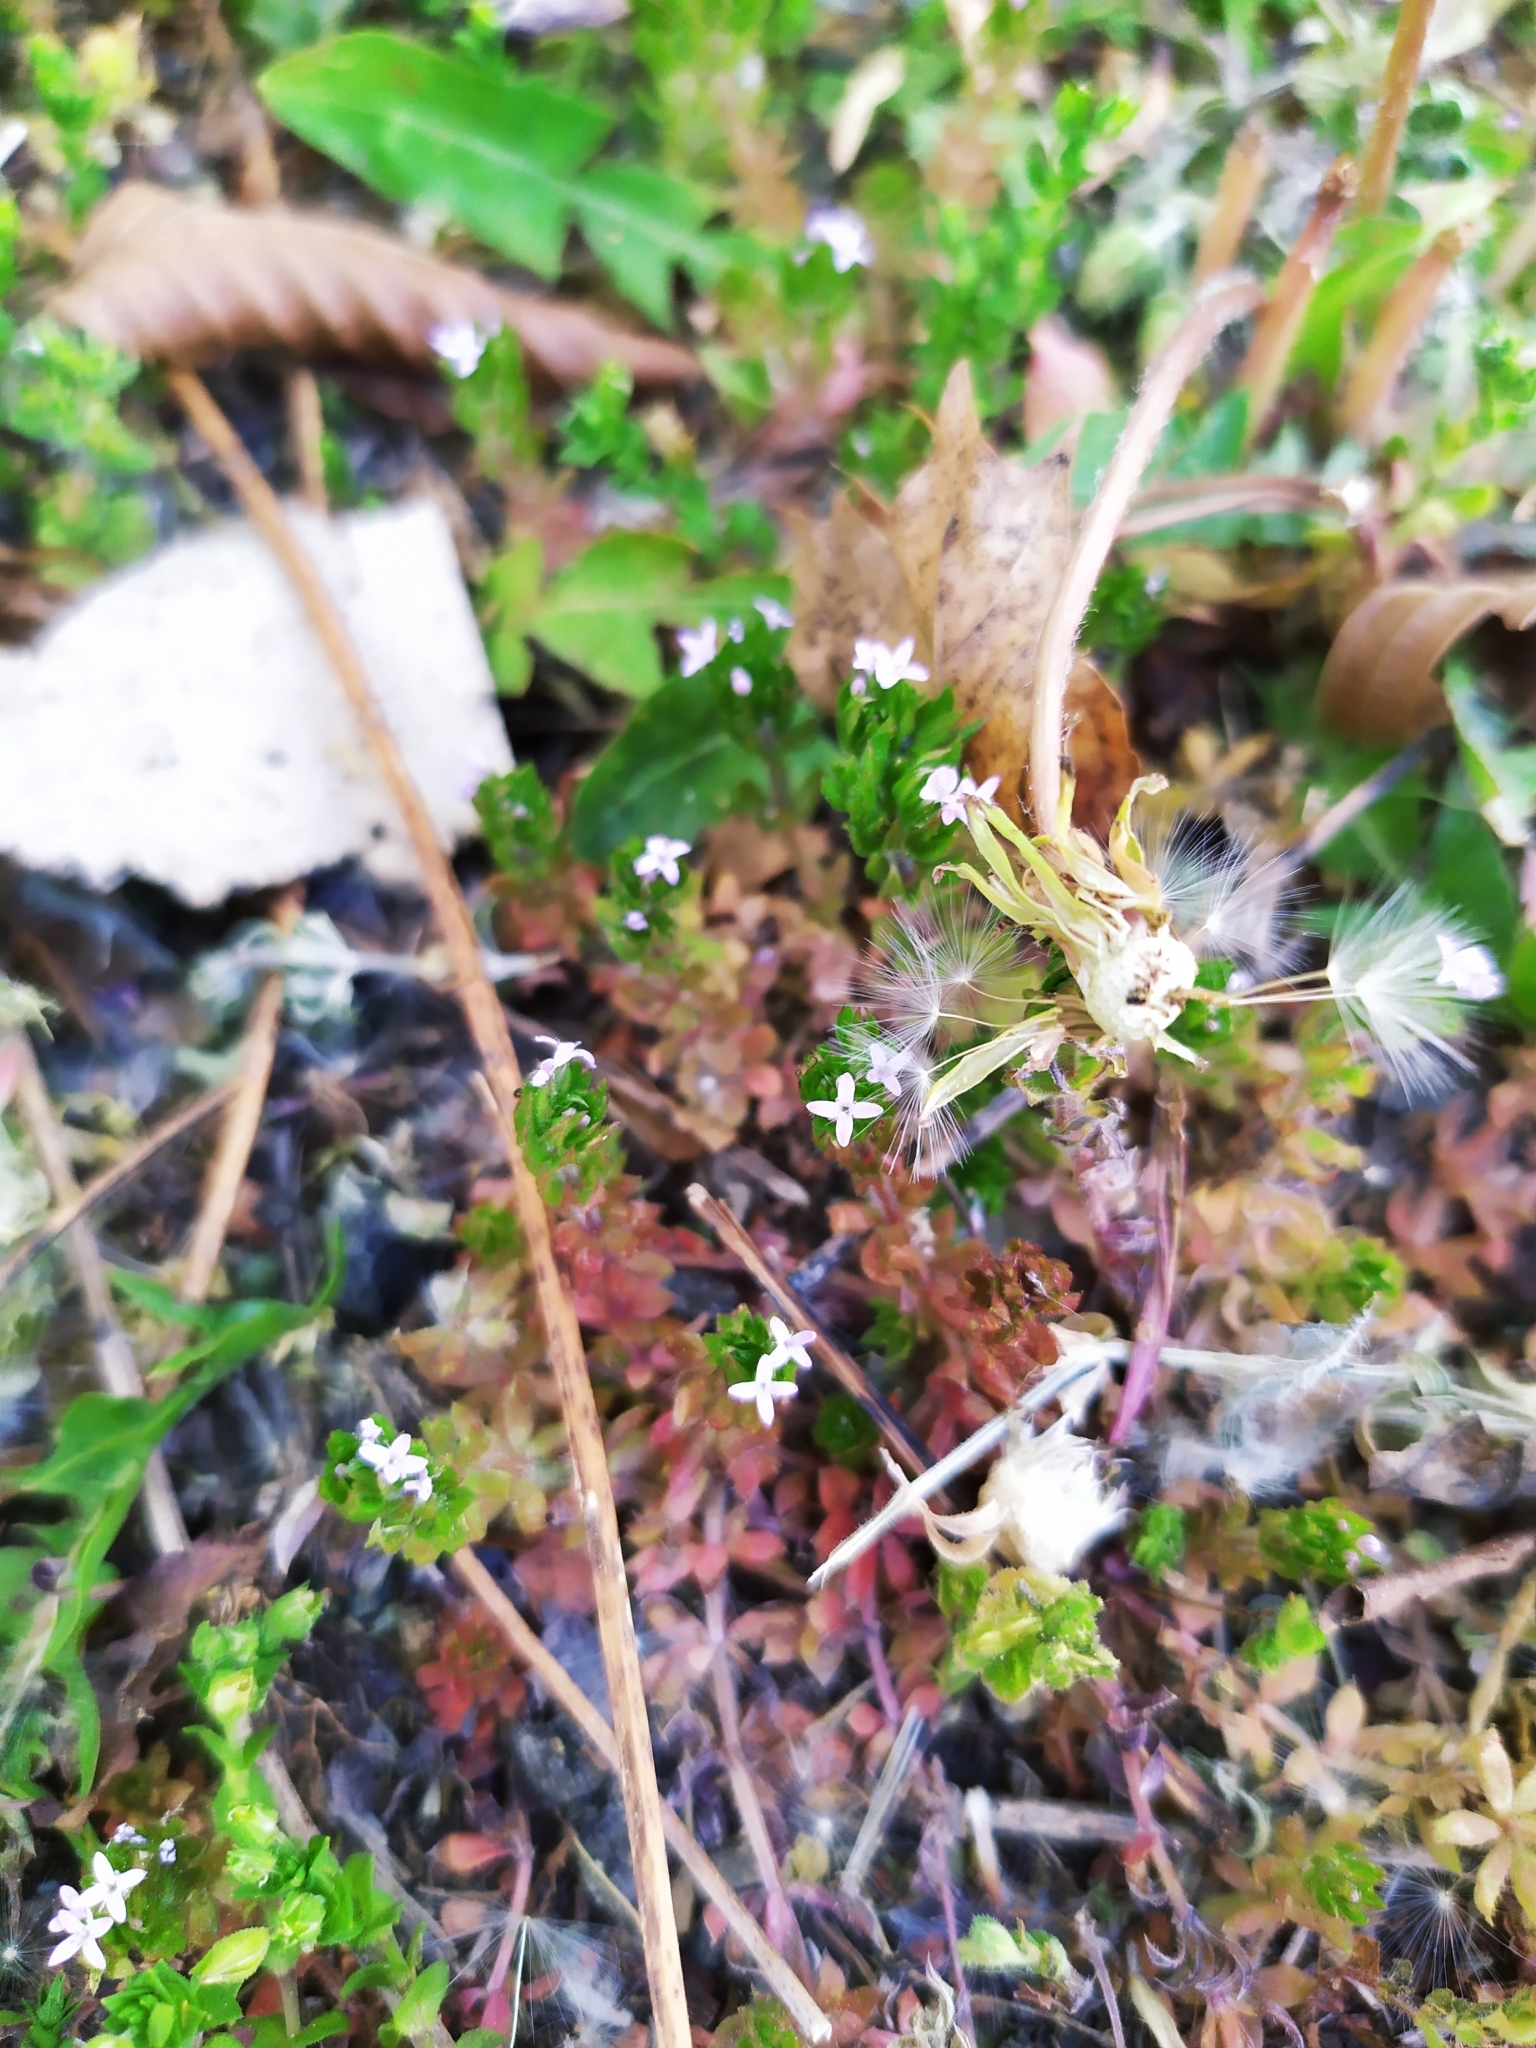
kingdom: Plantae
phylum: Tracheophyta
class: Magnoliopsida
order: Gentianales
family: Rubiaceae
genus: Sherardia
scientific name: Sherardia arvensis
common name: Field madder
